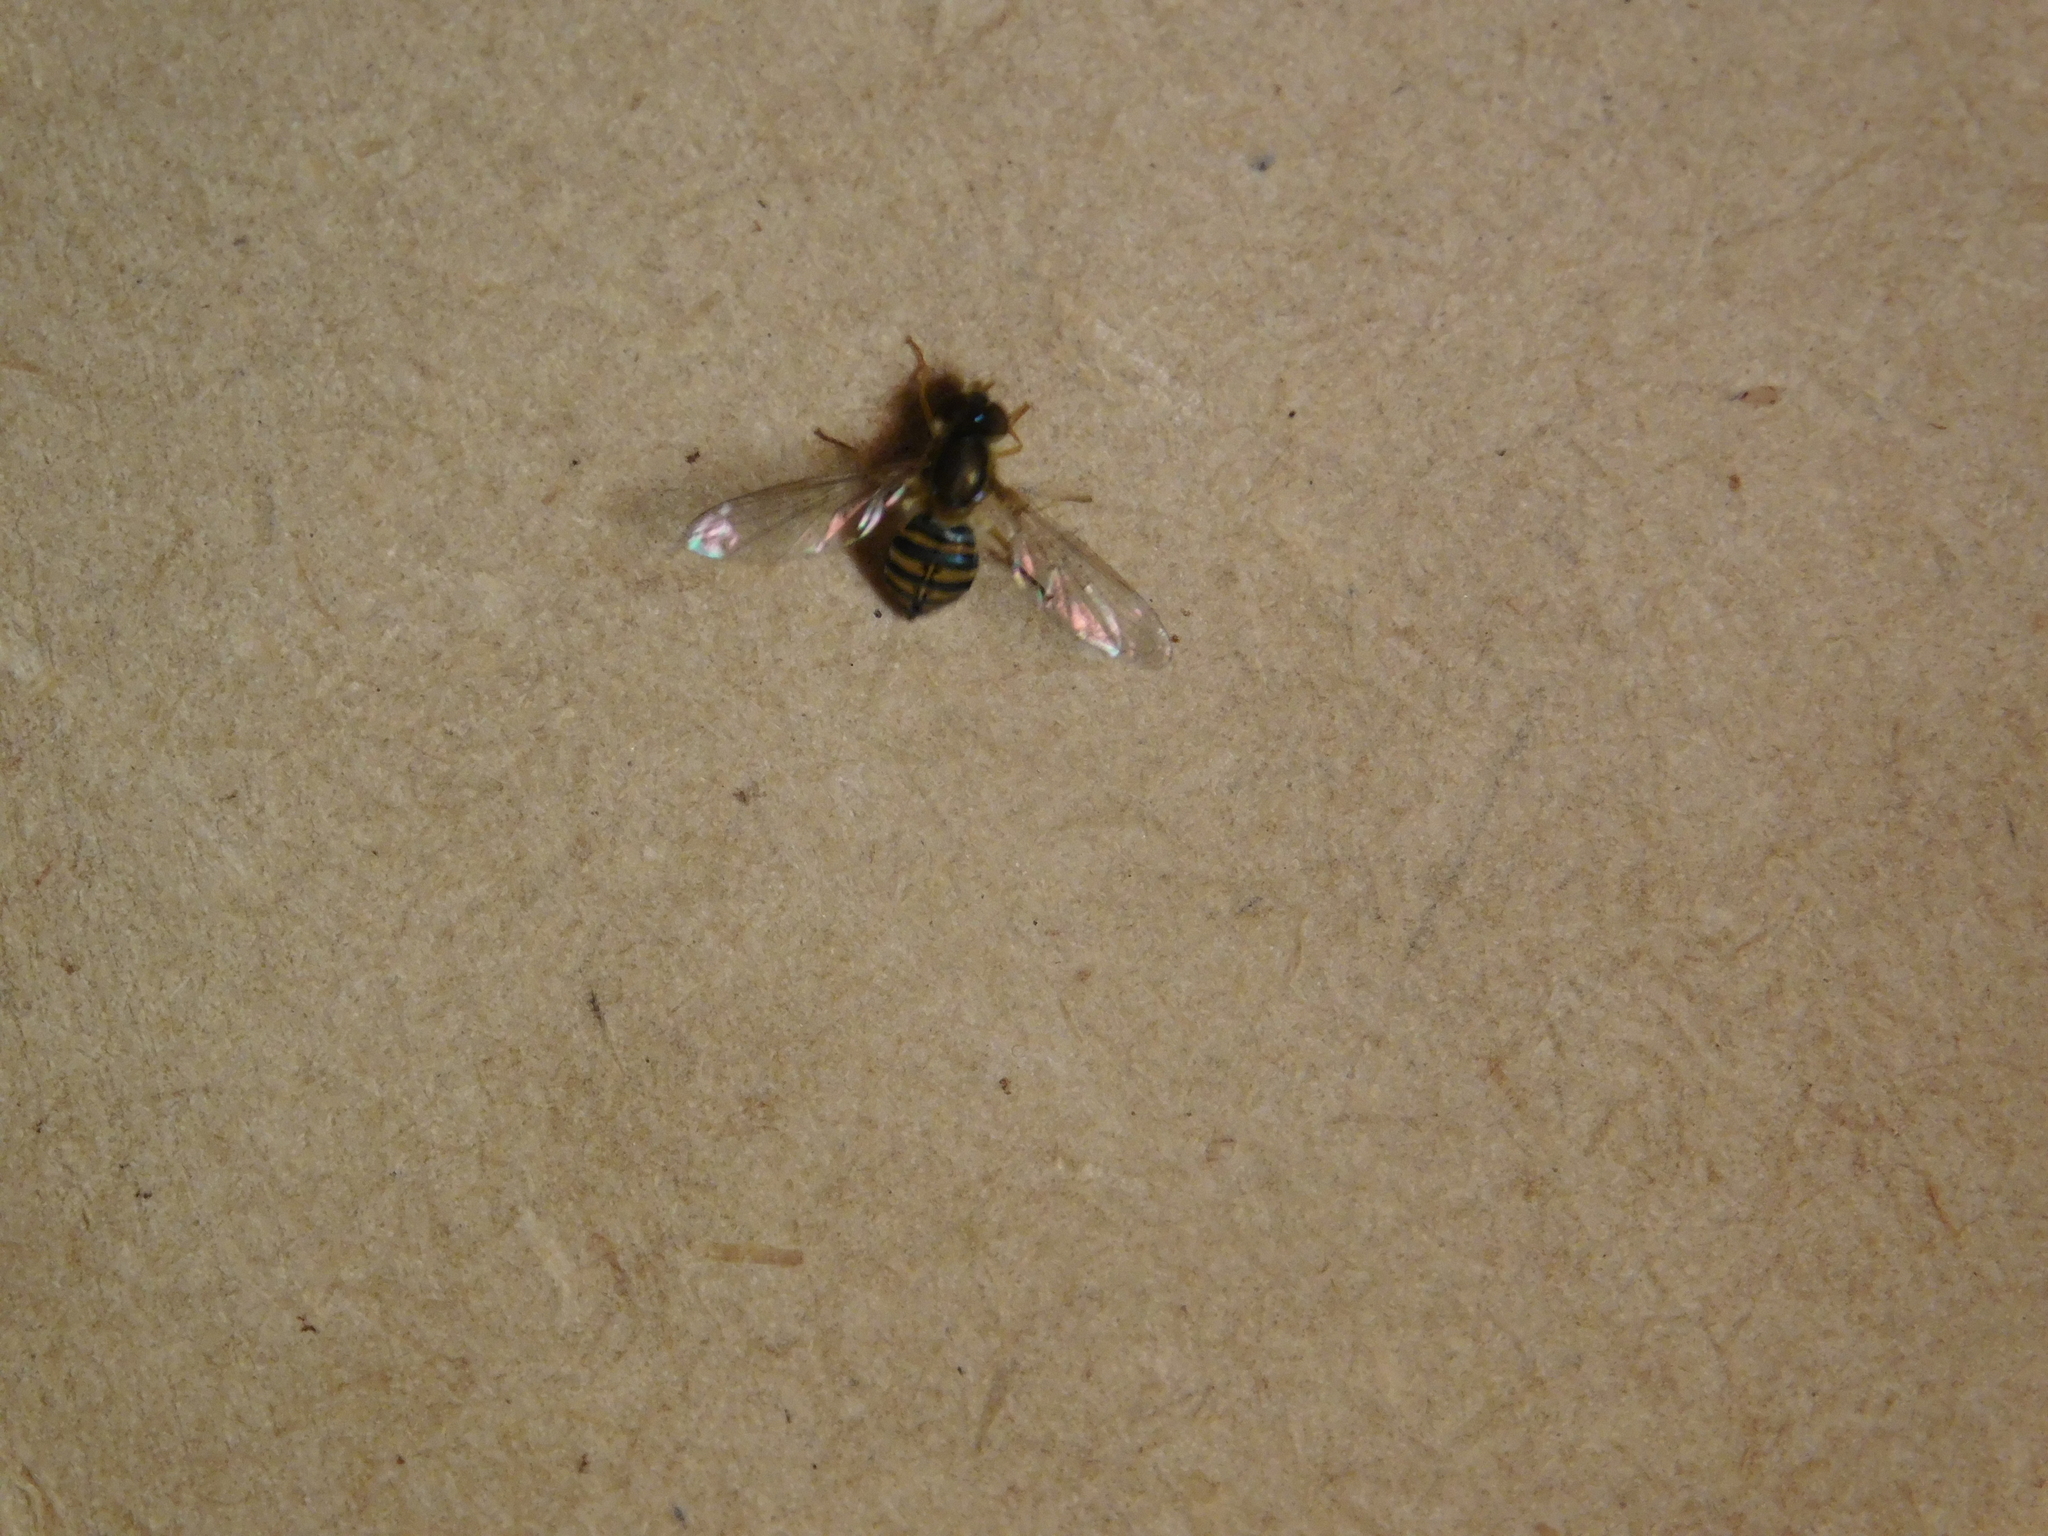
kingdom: Animalia
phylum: Arthropoda
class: Insecta
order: Diptera
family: Syrphidae
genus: Toxomerus
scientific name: Toxomerus
